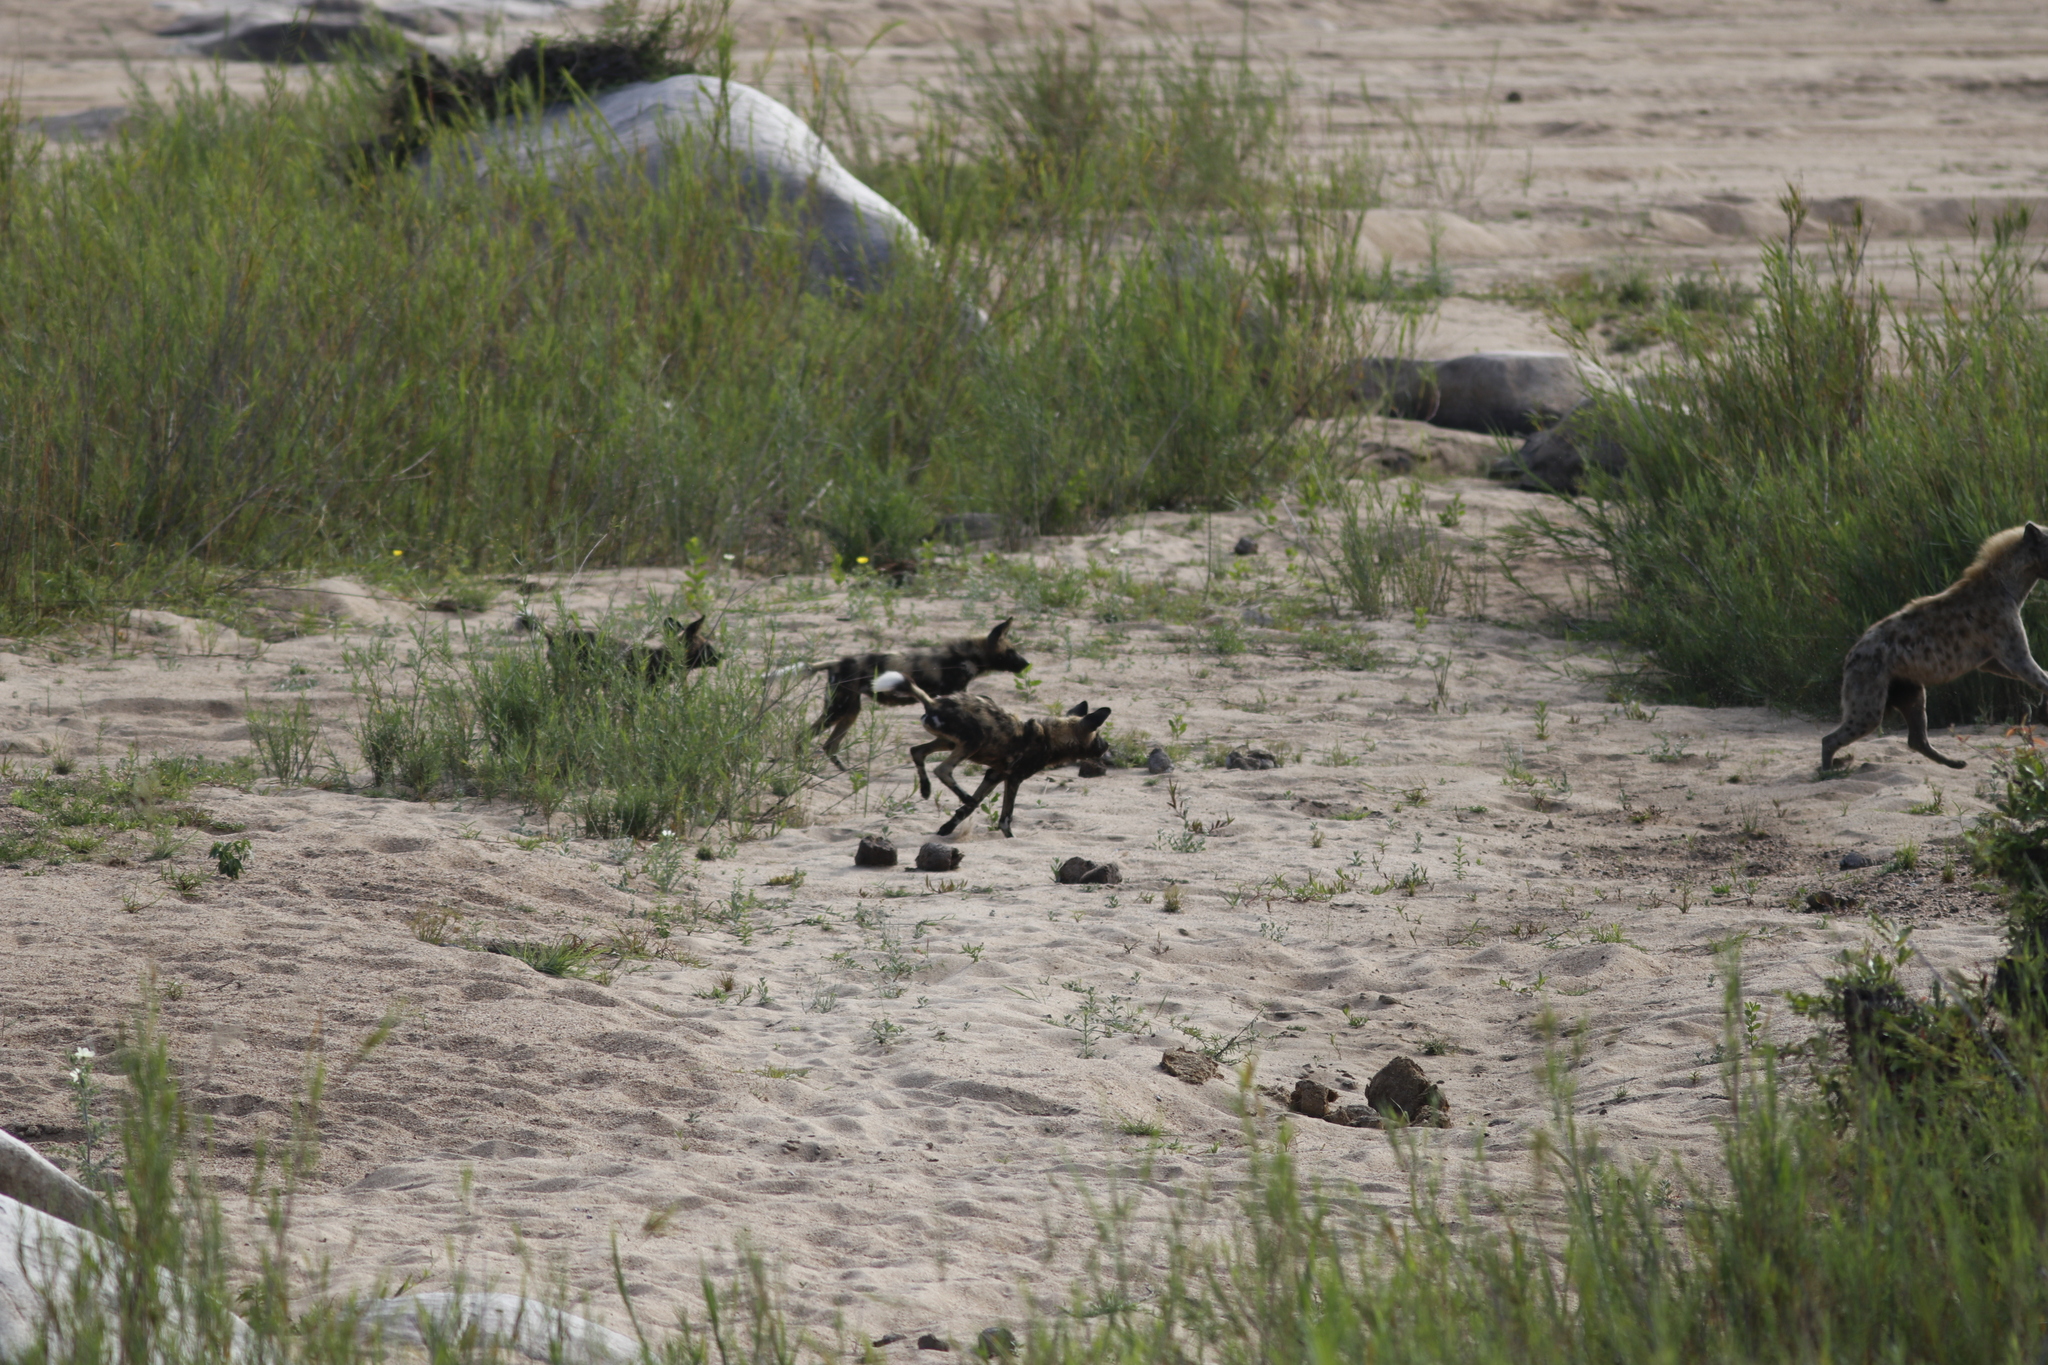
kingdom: Animalia
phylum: Chordata
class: Mammalia
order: Carnivora
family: Hyaenidae
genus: Crocuta
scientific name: Crocuta crocuta
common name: Spotted hyaena
